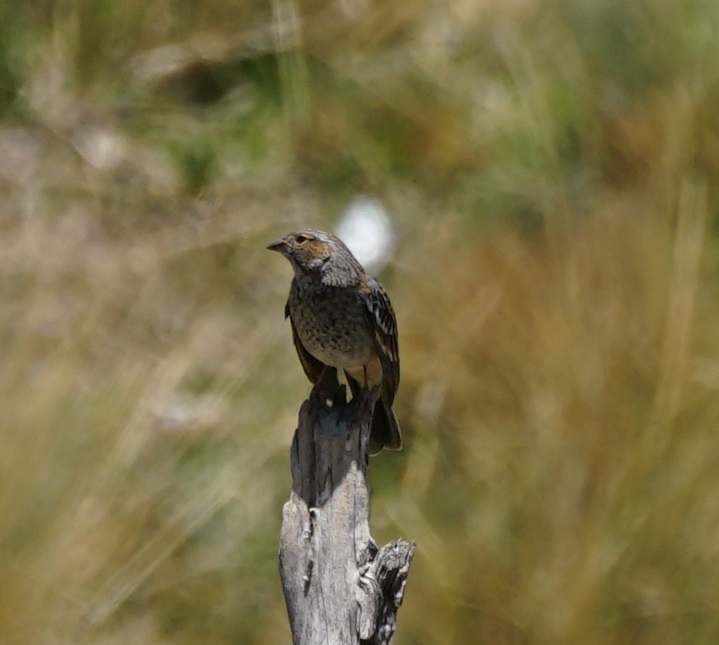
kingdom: Animalia
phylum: Chordata
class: Aves
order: Passeriformes
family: Thraupidae
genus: Rhopospina
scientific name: Rhopospina fruticeti
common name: Mourning sierra finch
